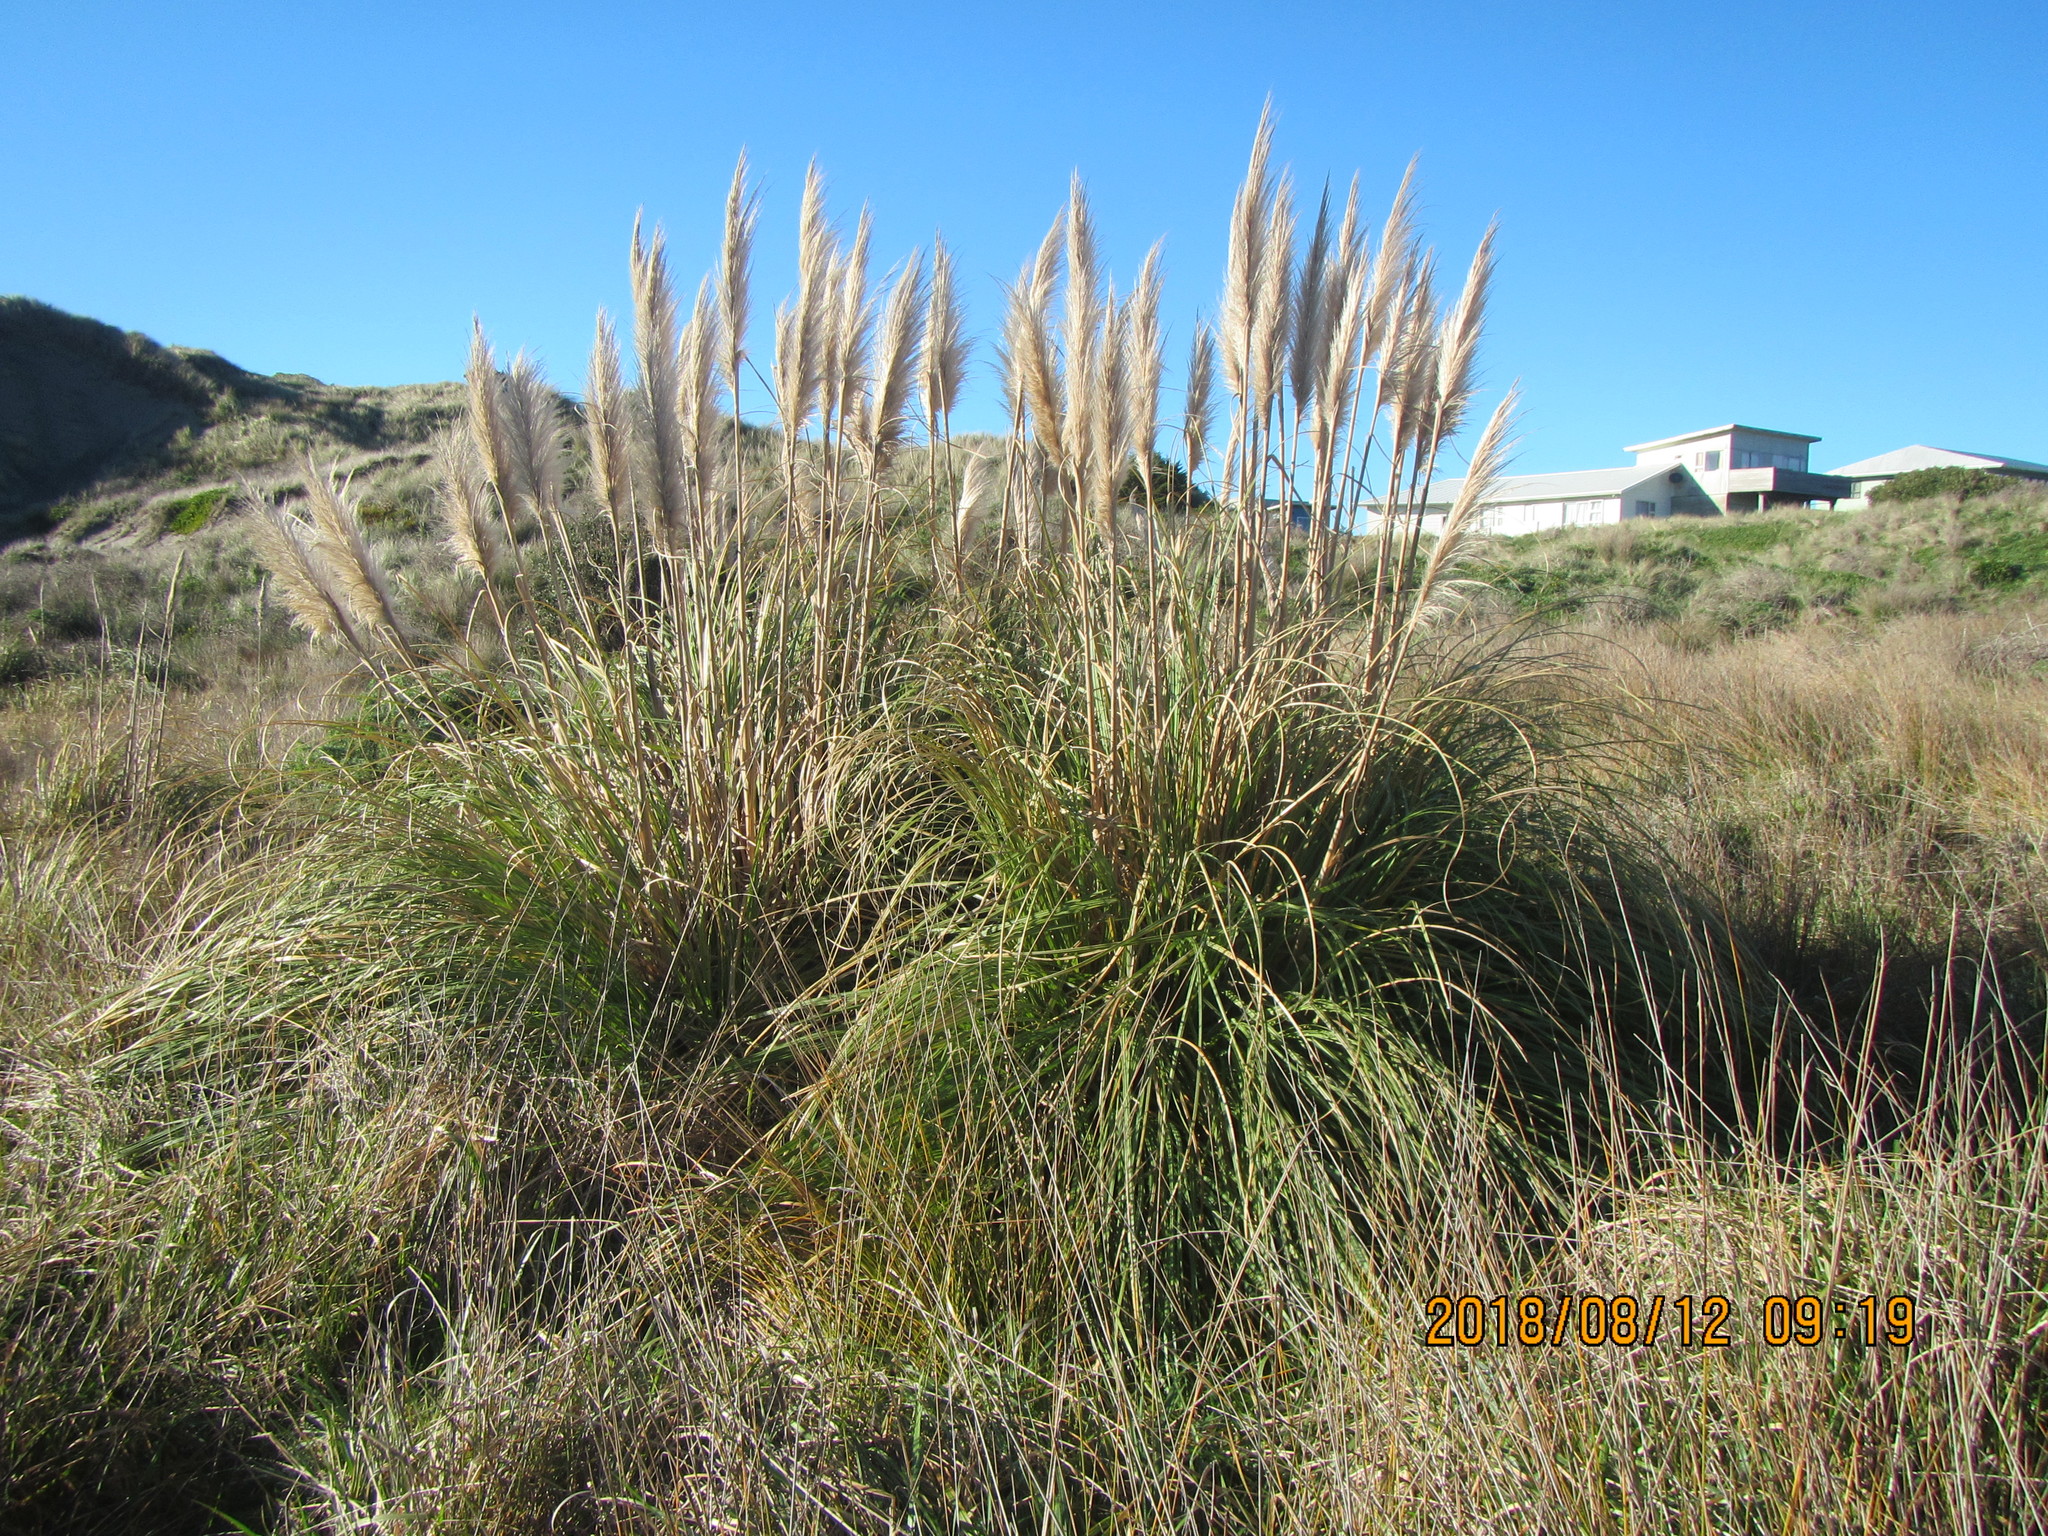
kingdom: Plantae
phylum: Tracheophyta
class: Liliopsida
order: Poales
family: Poaceae
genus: Cortaderia
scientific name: Cortaderia selloana
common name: Uruguayan pampas grass
